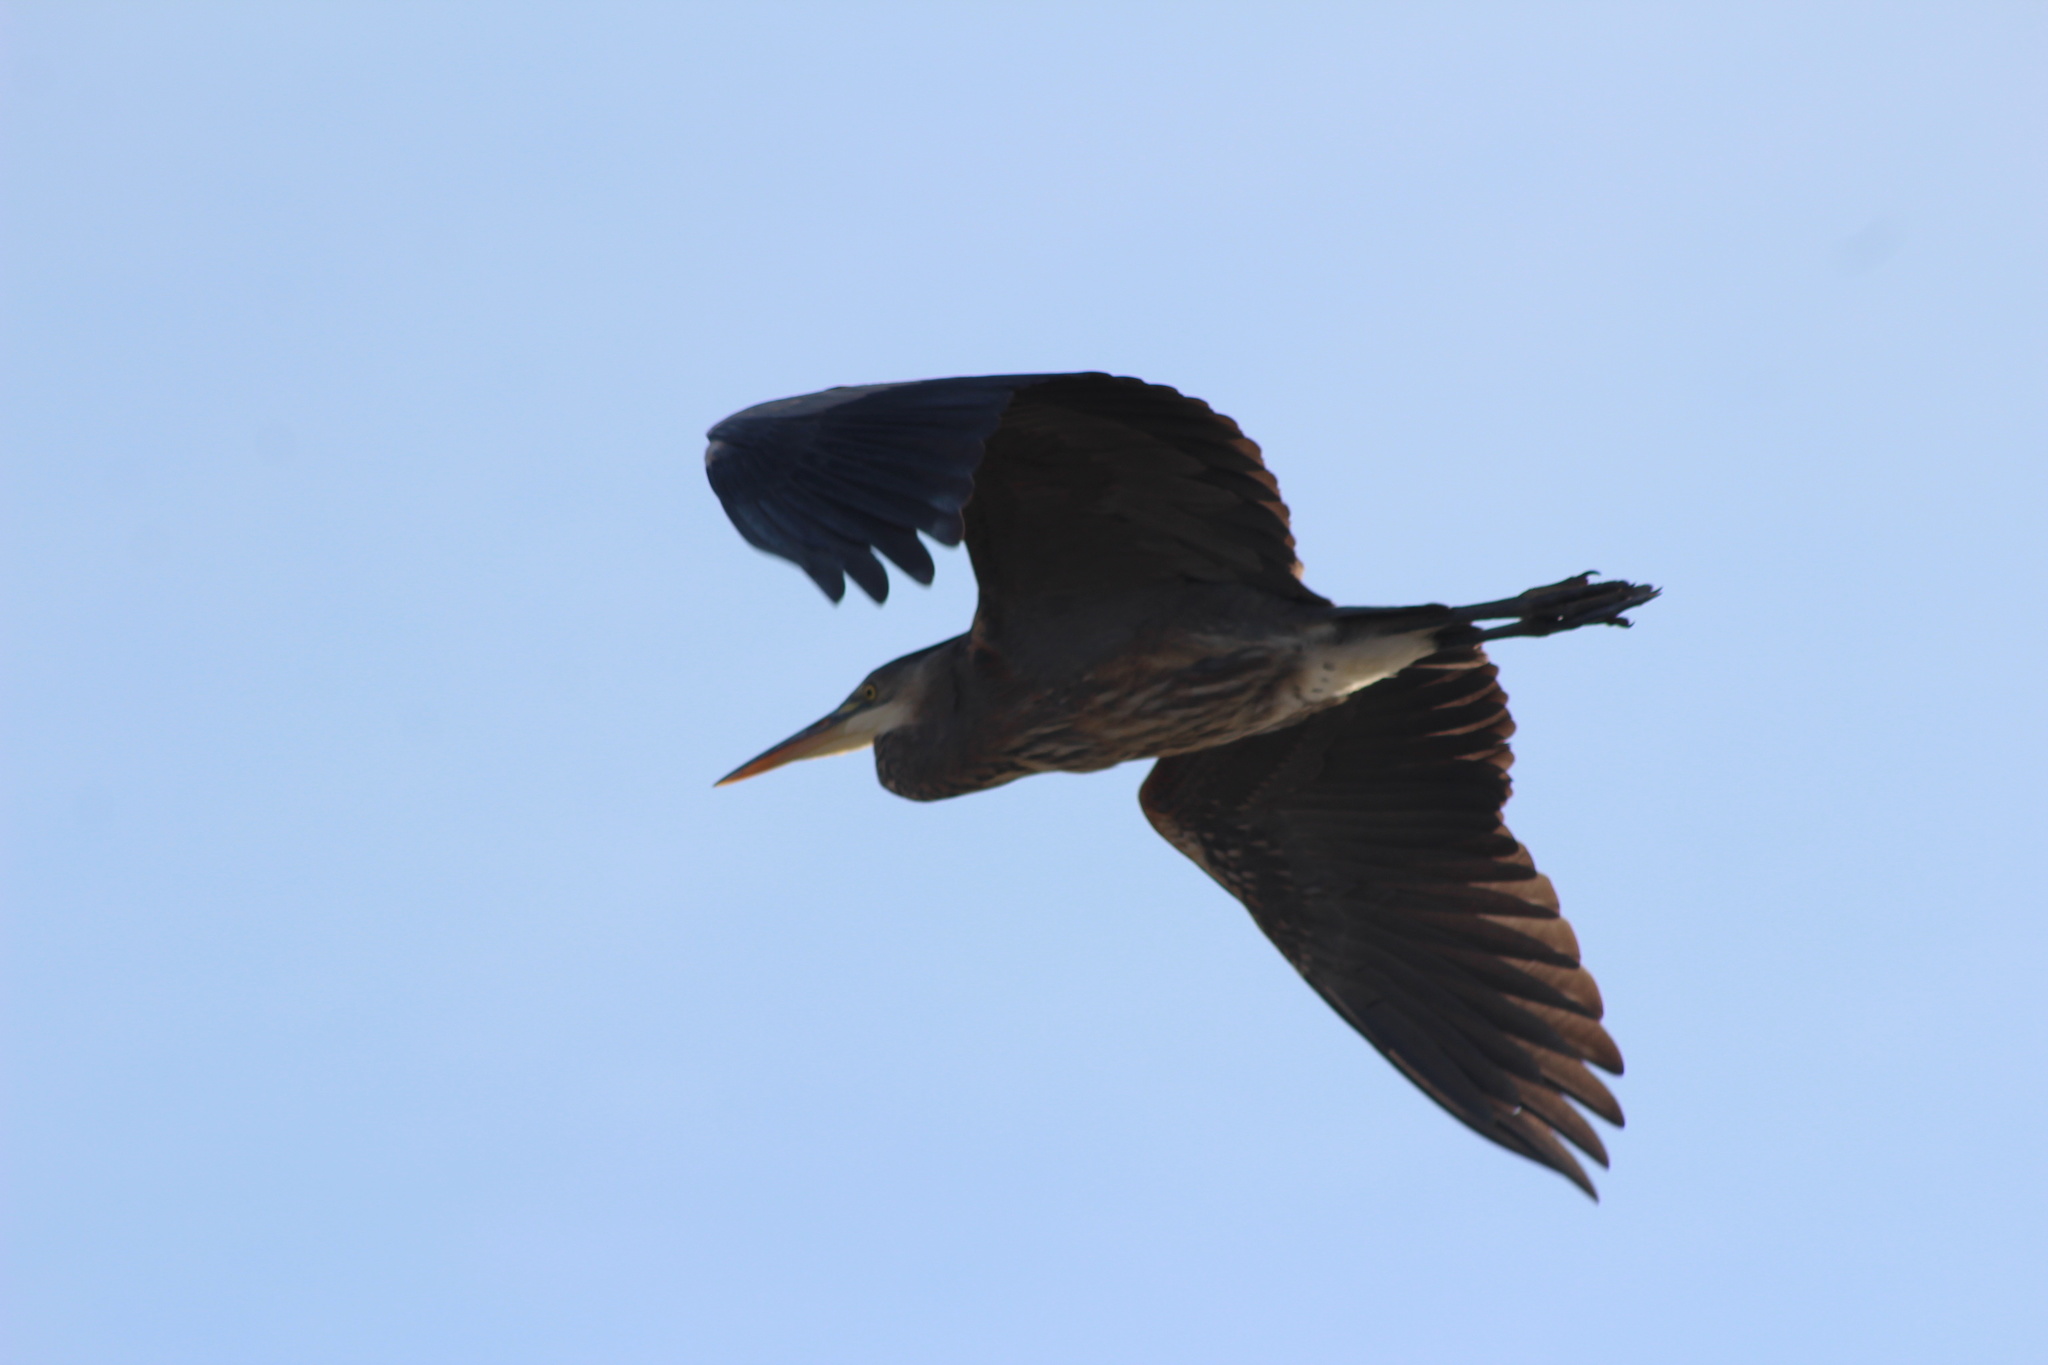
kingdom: Animalia
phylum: Chordata
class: Aves
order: Pelecaniformes
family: Ardeidae
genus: Ardea
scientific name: Ardea herodias
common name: Great blue heron
